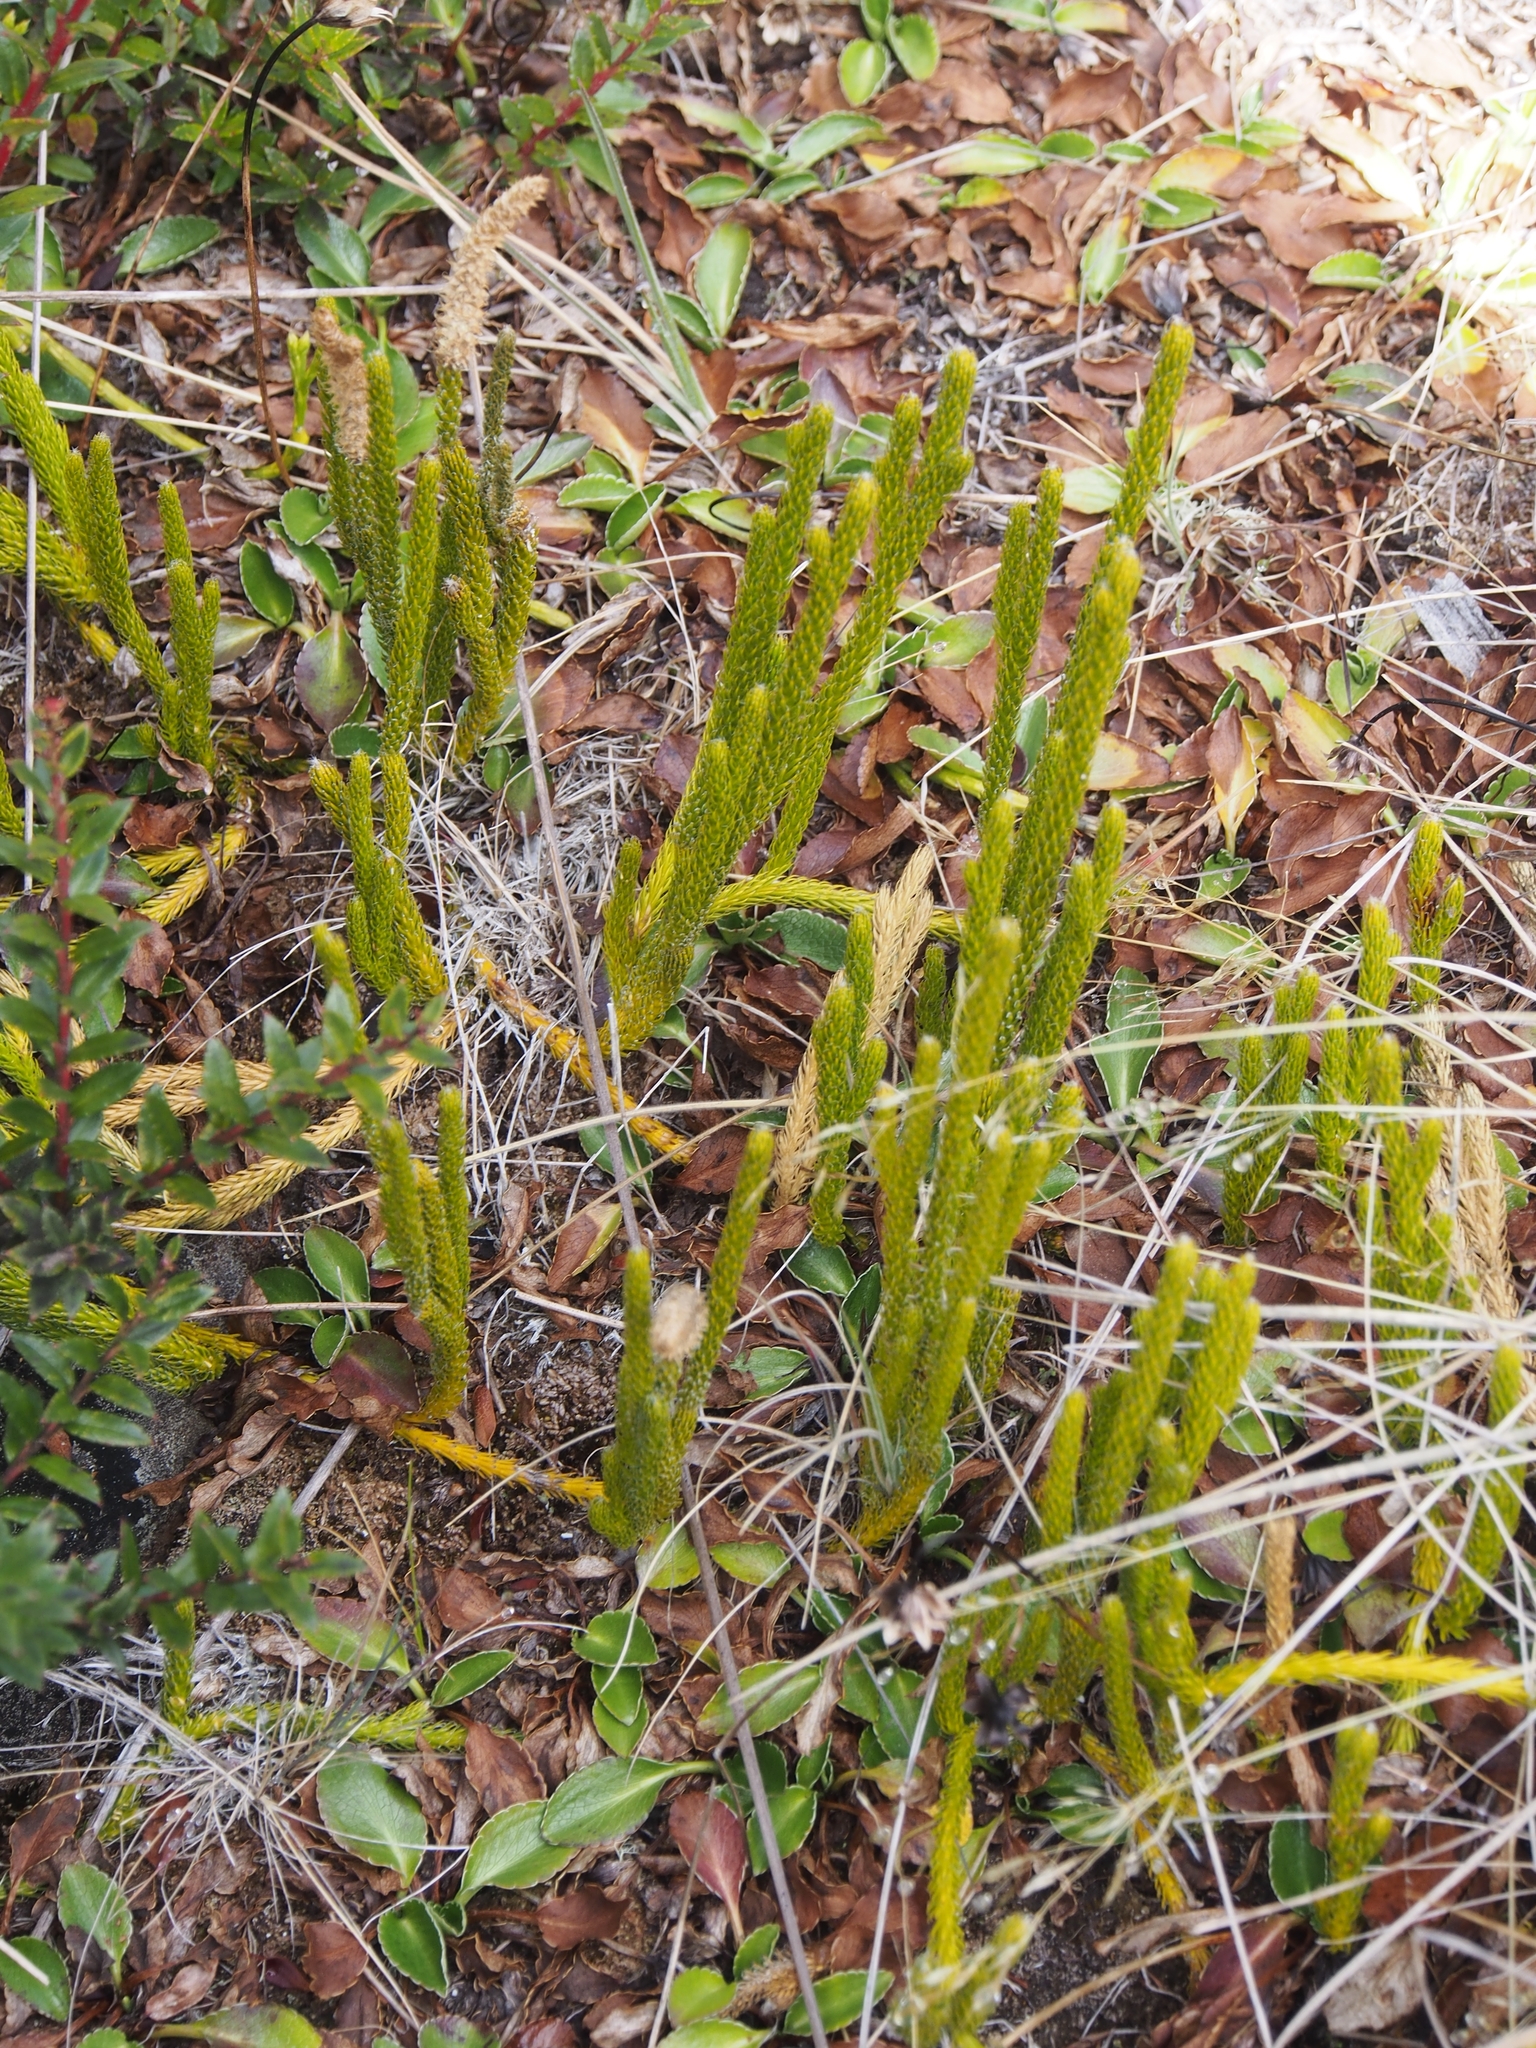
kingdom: Plantae
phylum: Tracheophyta
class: Lycopodiopsida
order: Lycopodiales
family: Lycopodiaceae
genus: Lycopodium
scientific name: Lycopodium clavatum
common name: Stag's-horn clubmoss
